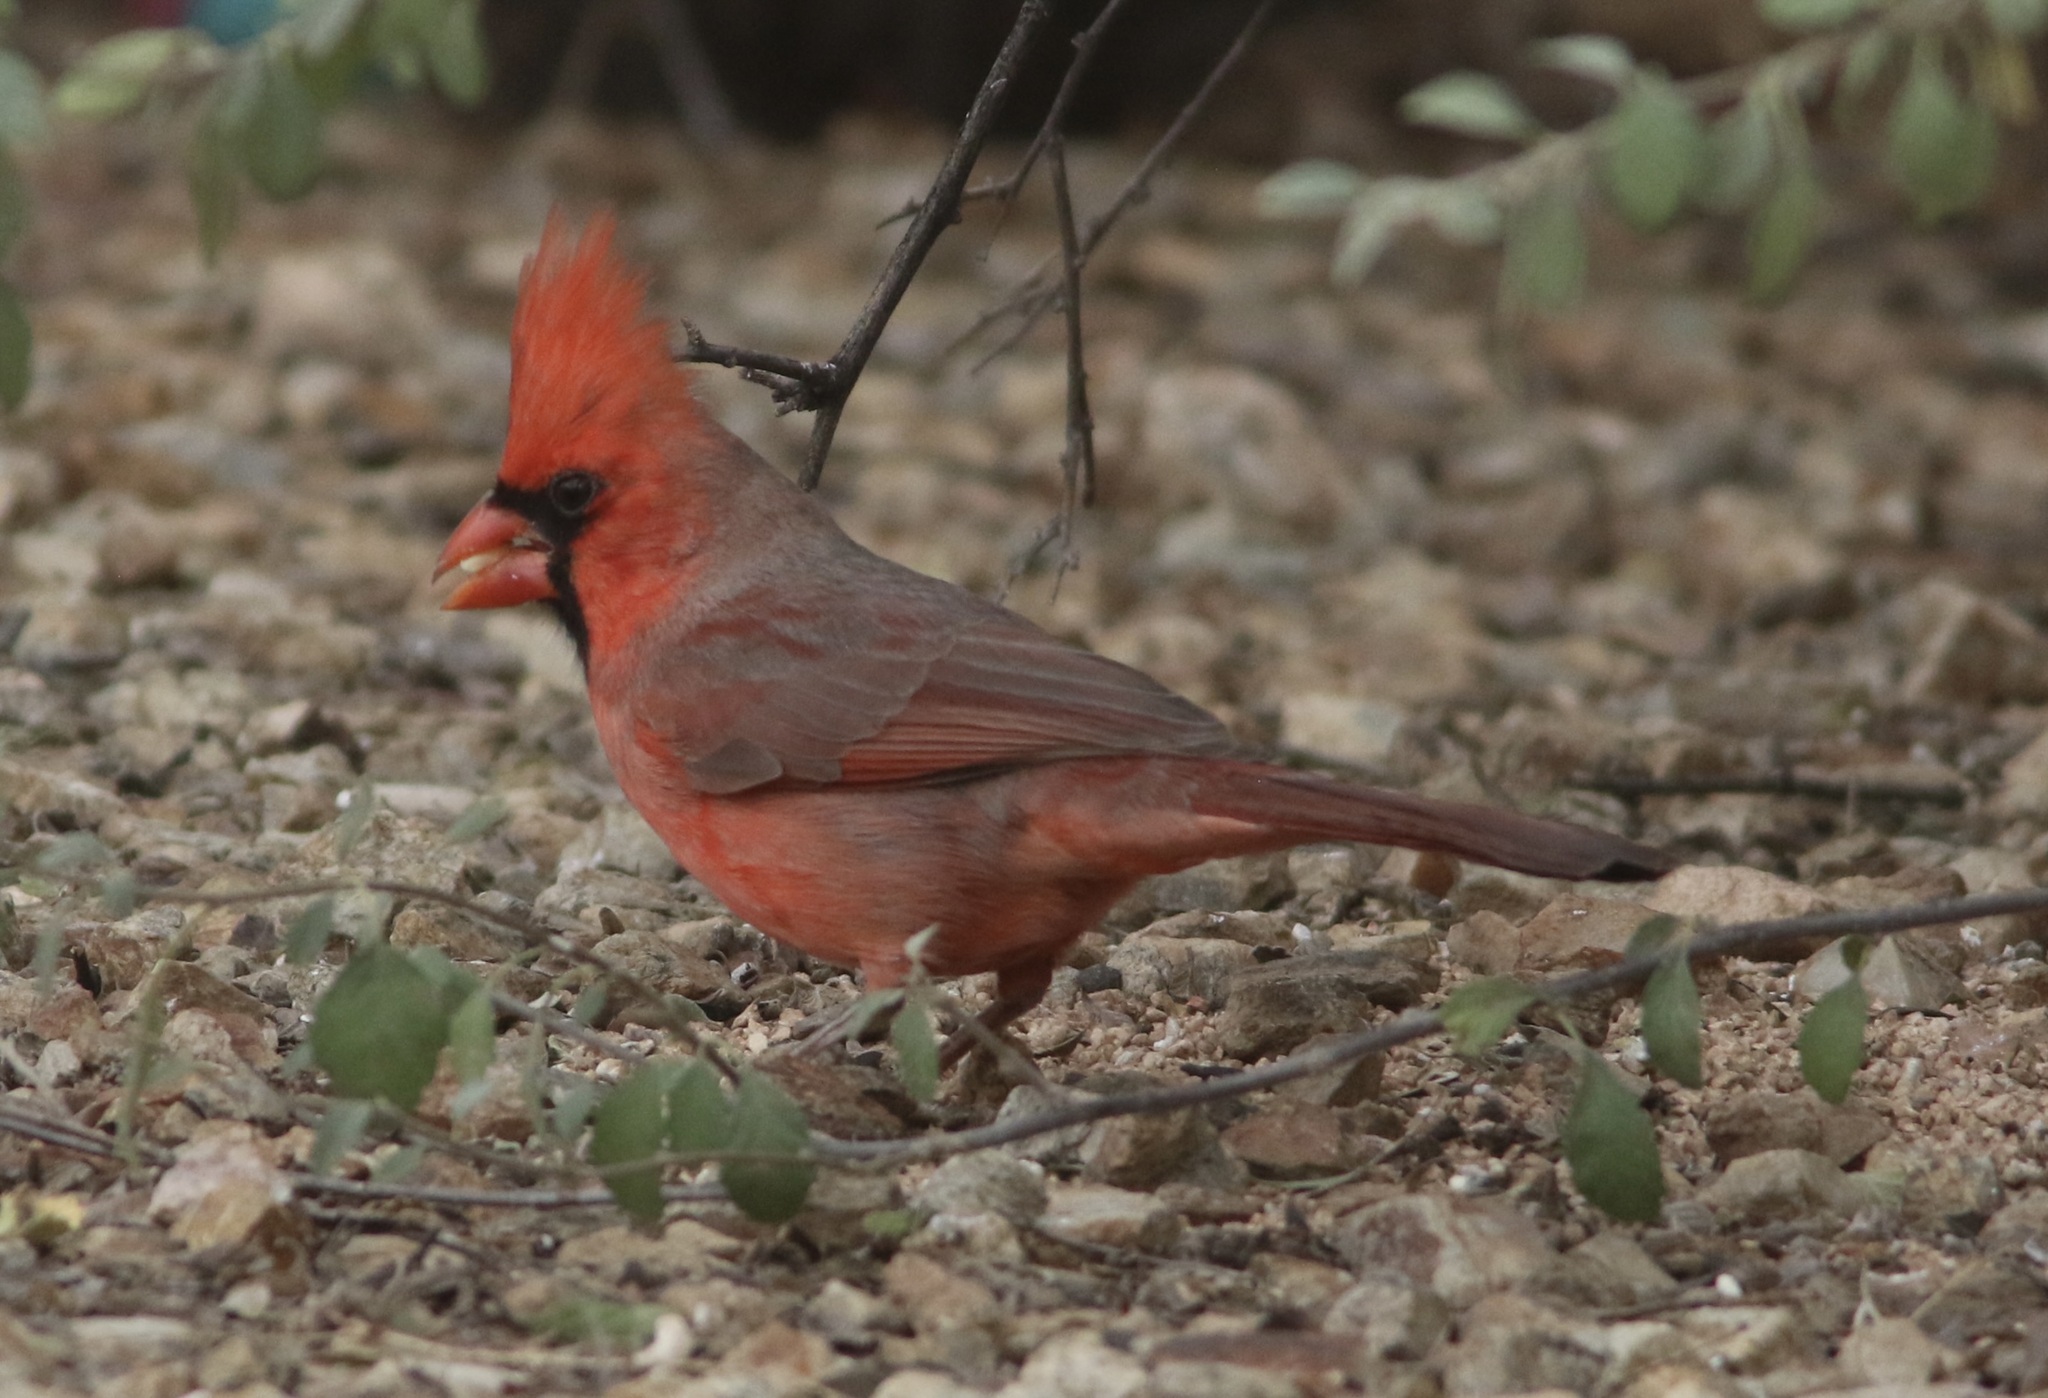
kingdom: Animalia
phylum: Chordata
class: Aves
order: Passeriformes
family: Cardinalidae
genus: Cardinalis
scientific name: Cardinalis cardinalis
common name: Northern cardinal
